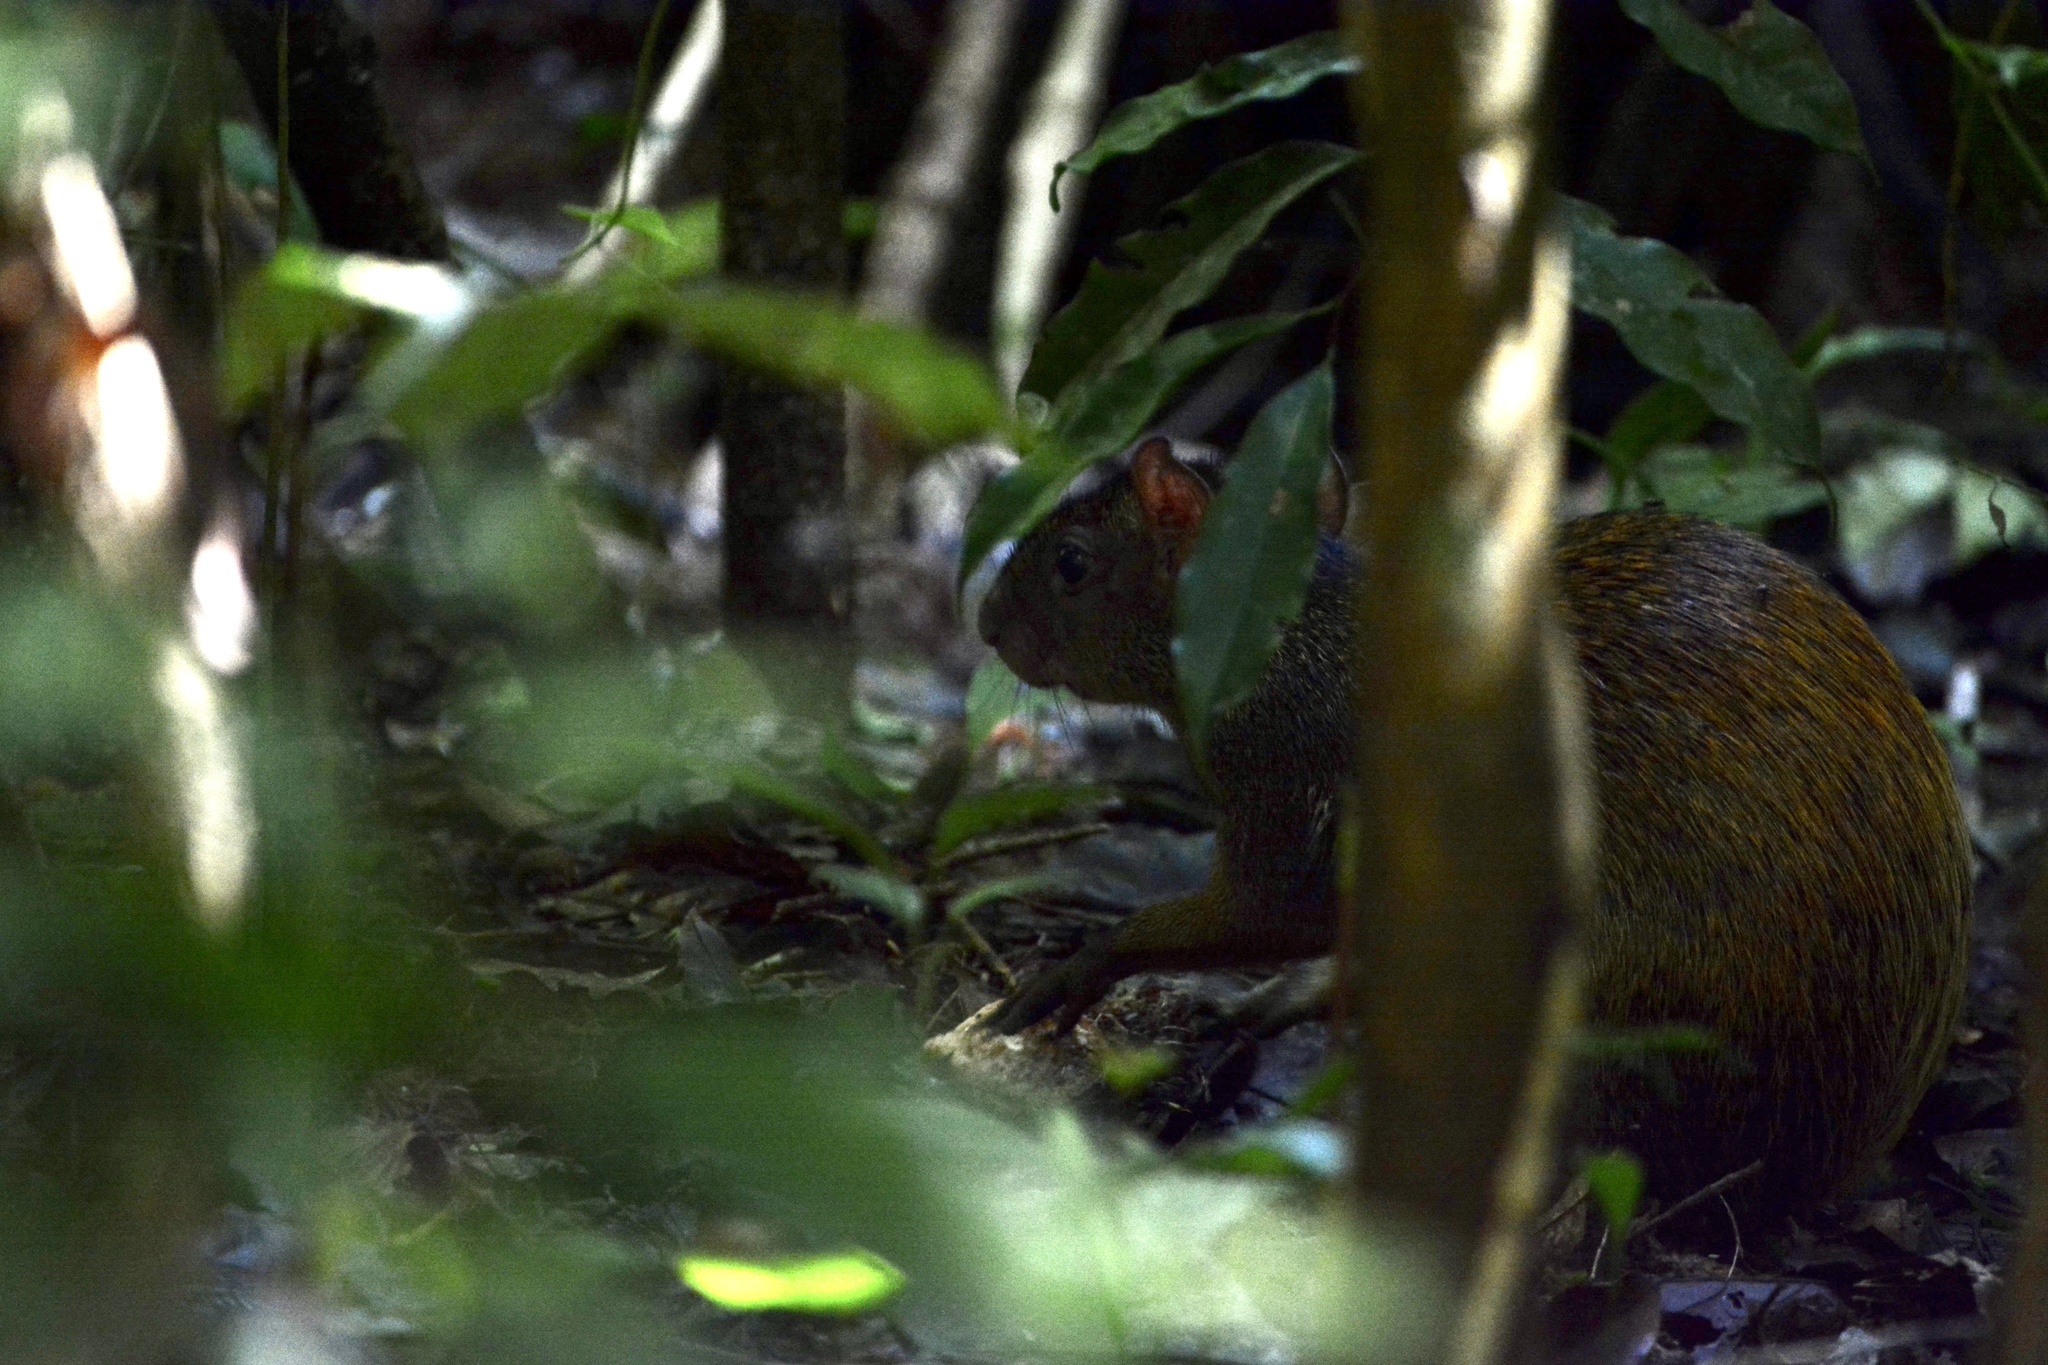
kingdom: Animalia
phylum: Chordata
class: Mammalia
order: Rodentia
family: Dasyproctidae
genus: Dasyprocta
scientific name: Dasyprocta punctata
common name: Central american agouti
